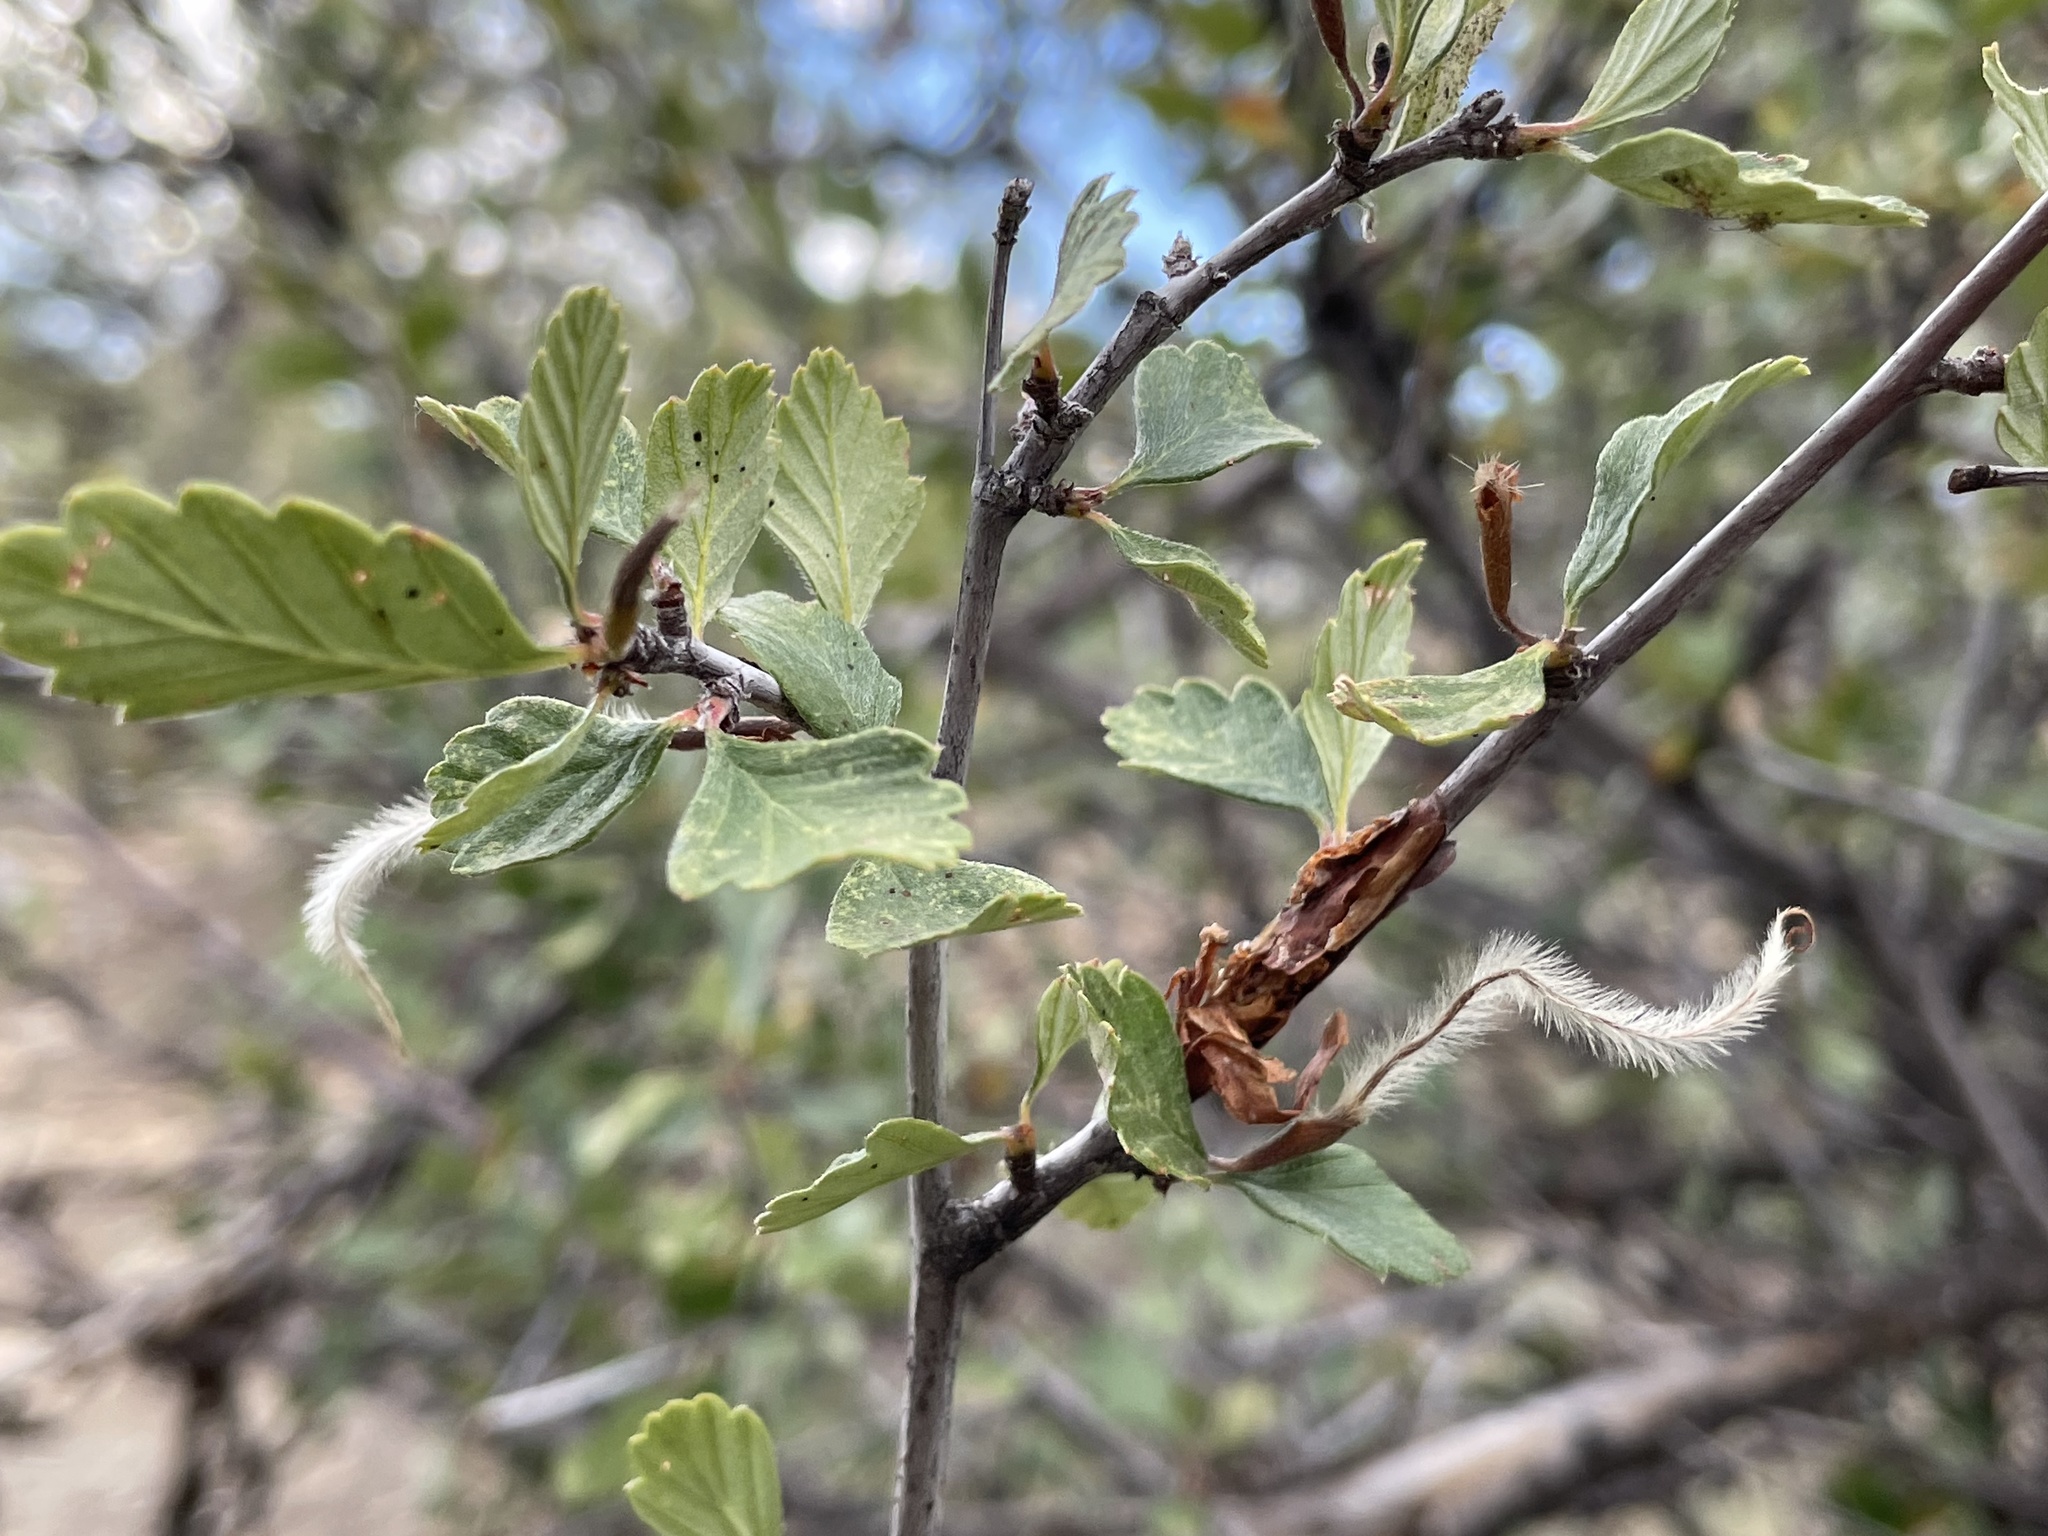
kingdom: Plantae
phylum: Tracheophyta
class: Magnoliopsida
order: Rosales
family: Rosaceae
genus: Cercocarpus
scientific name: Cercocarpus montanus
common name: Alder-leaf cercocarpus
